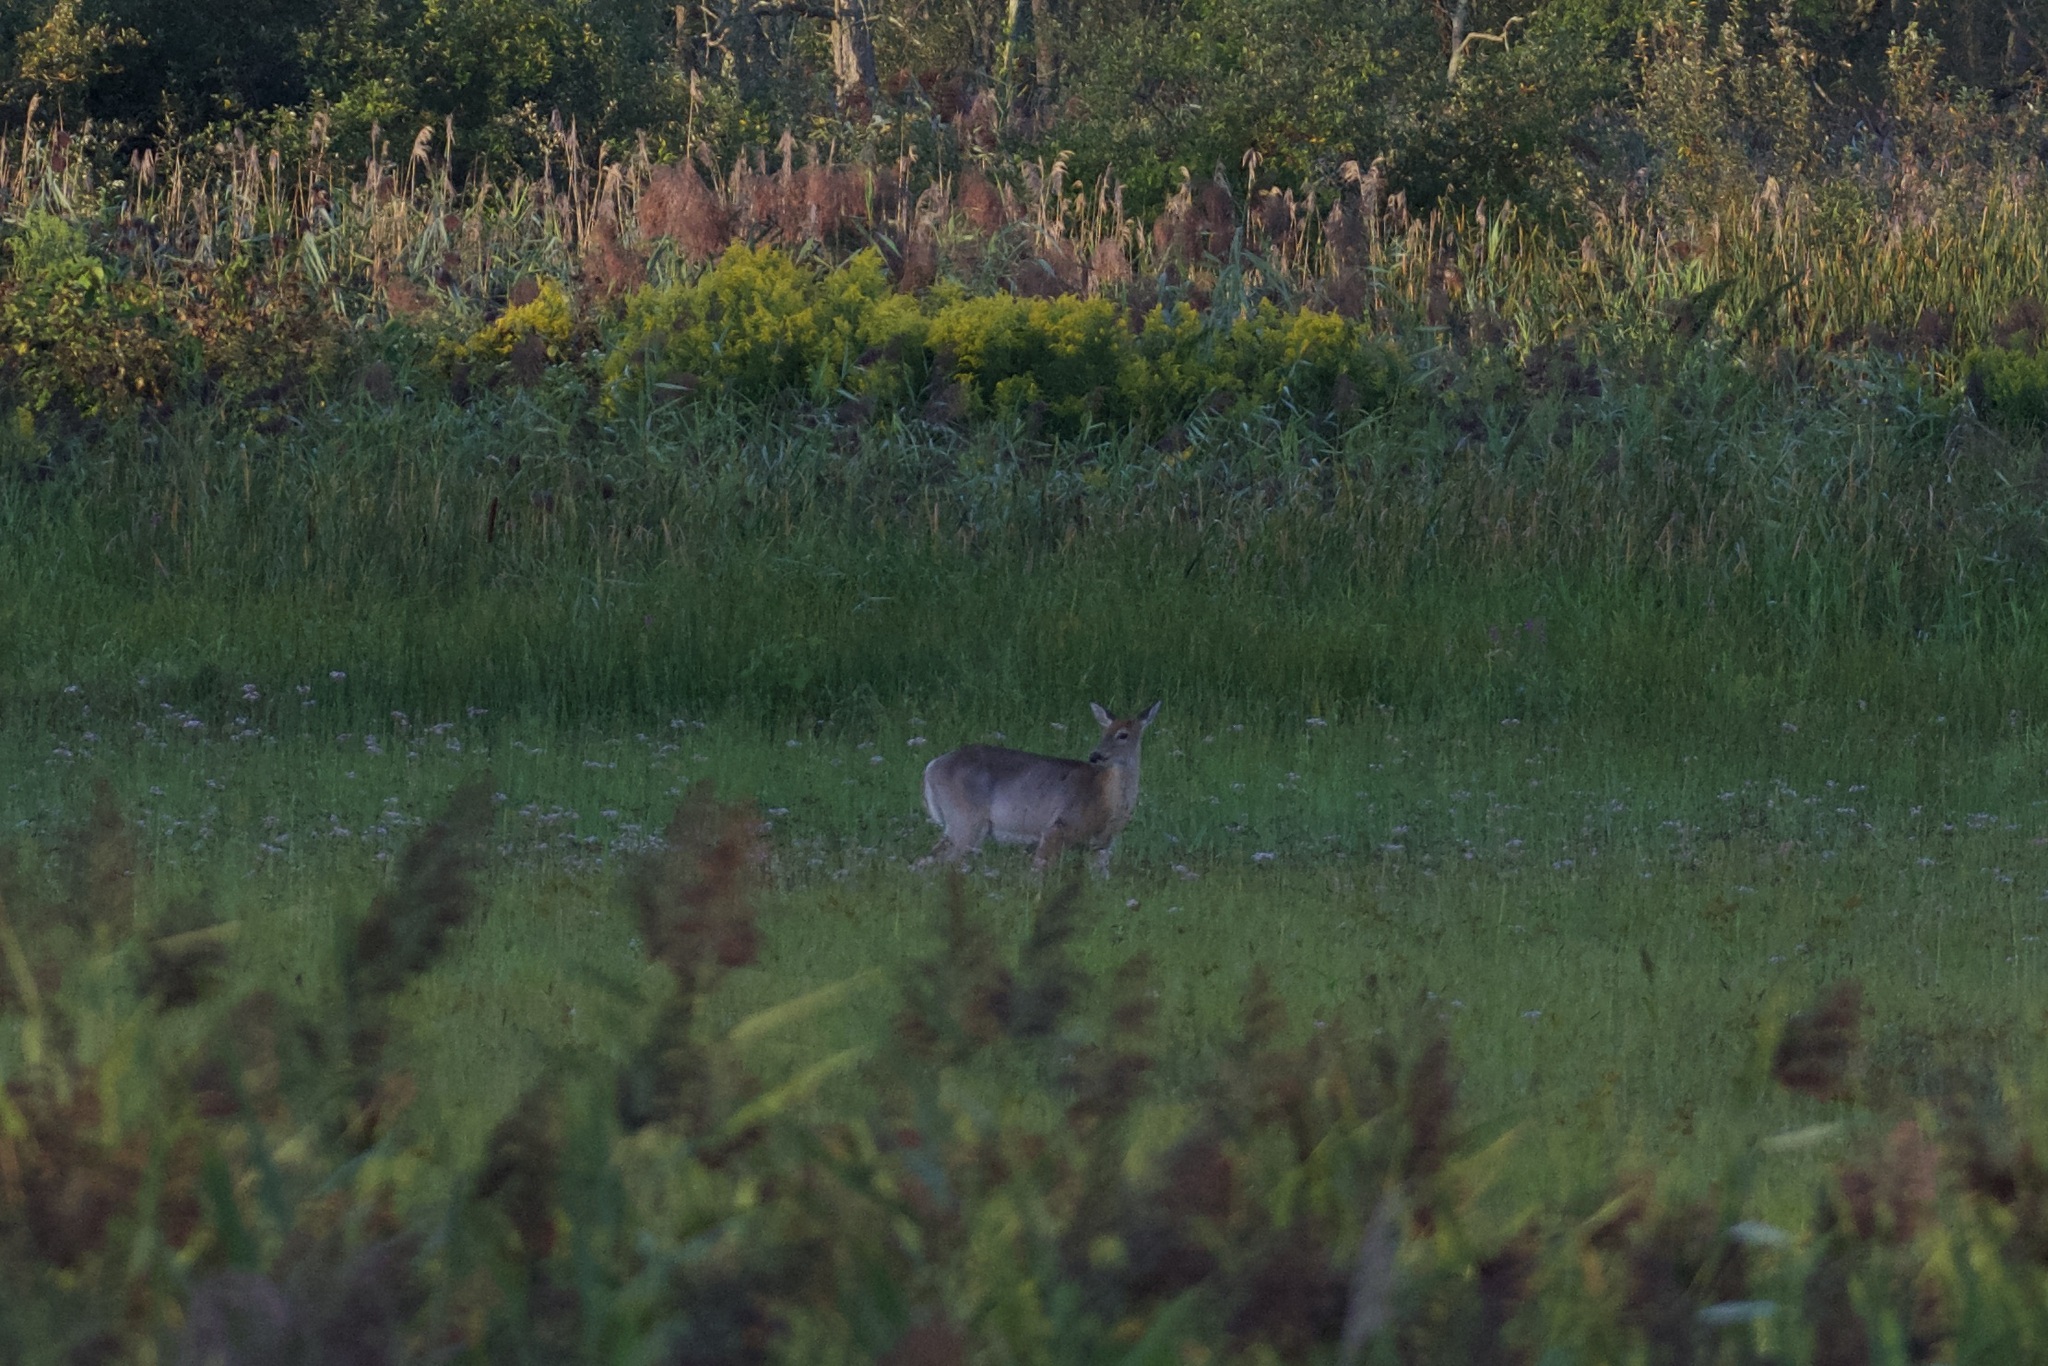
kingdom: Animalia
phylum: Chordata
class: Mammalia
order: Artiodactyla
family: Cervidae
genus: Odocoileus
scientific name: Odocoileus virginianus
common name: White-tailed deer
